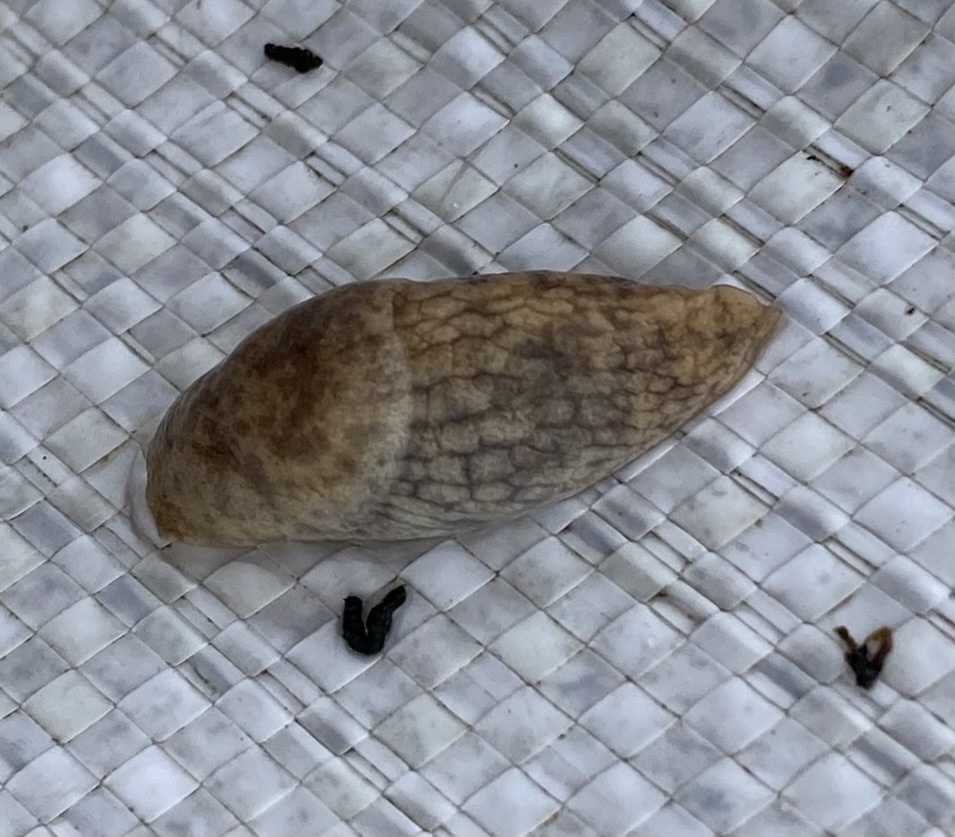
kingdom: Animalia
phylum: Mollusca
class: Gastropoda
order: Stylommatophora
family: Agriolimacidae
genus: Deroceras
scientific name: Deroceras reticulatum
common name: Gray field slug
